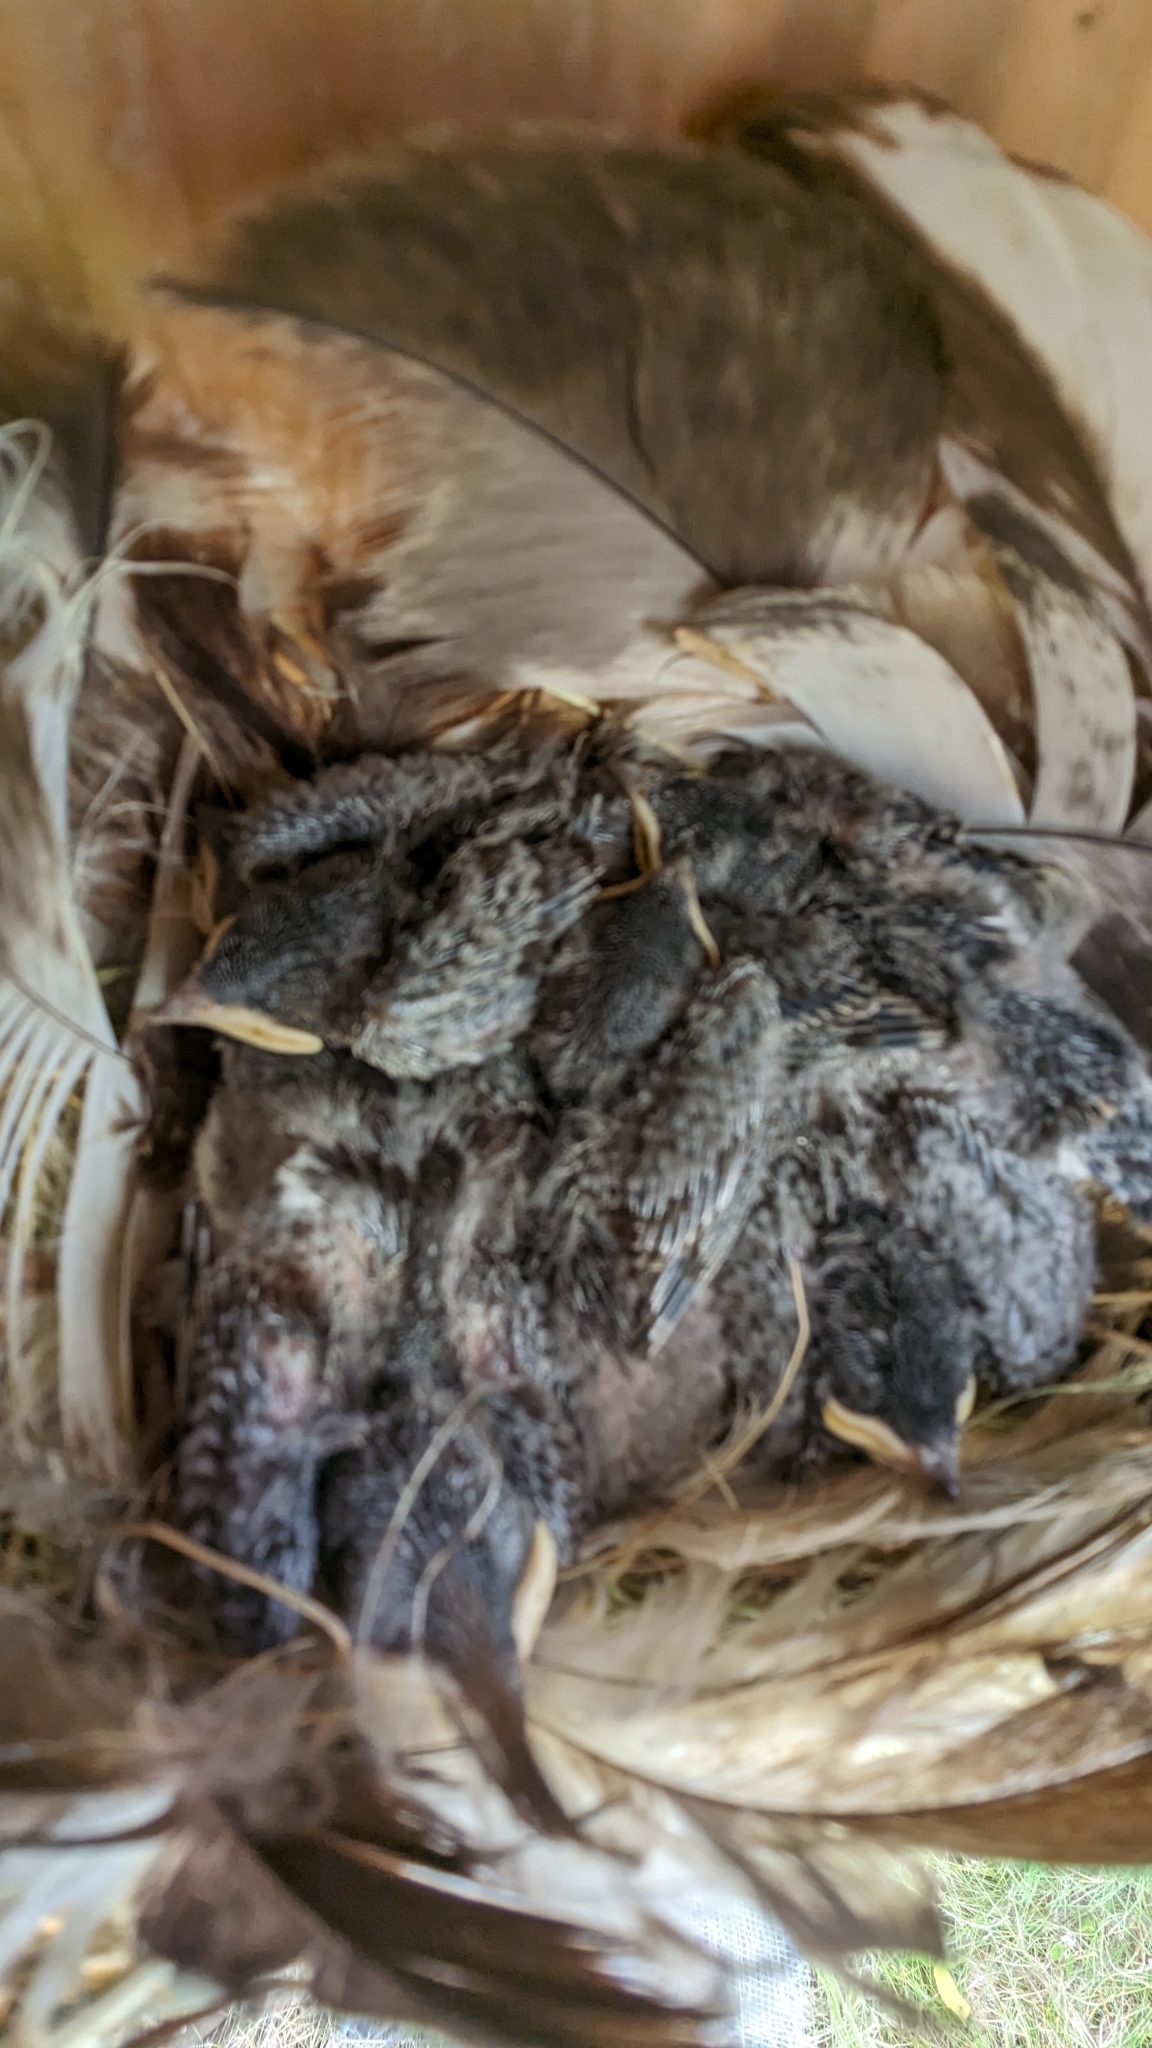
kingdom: Animalia
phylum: Chordata
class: Aves
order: Passeriformes
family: Hirundinidae
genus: Tachycineta
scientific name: Tachycineta bicolor
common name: Tree swallow
